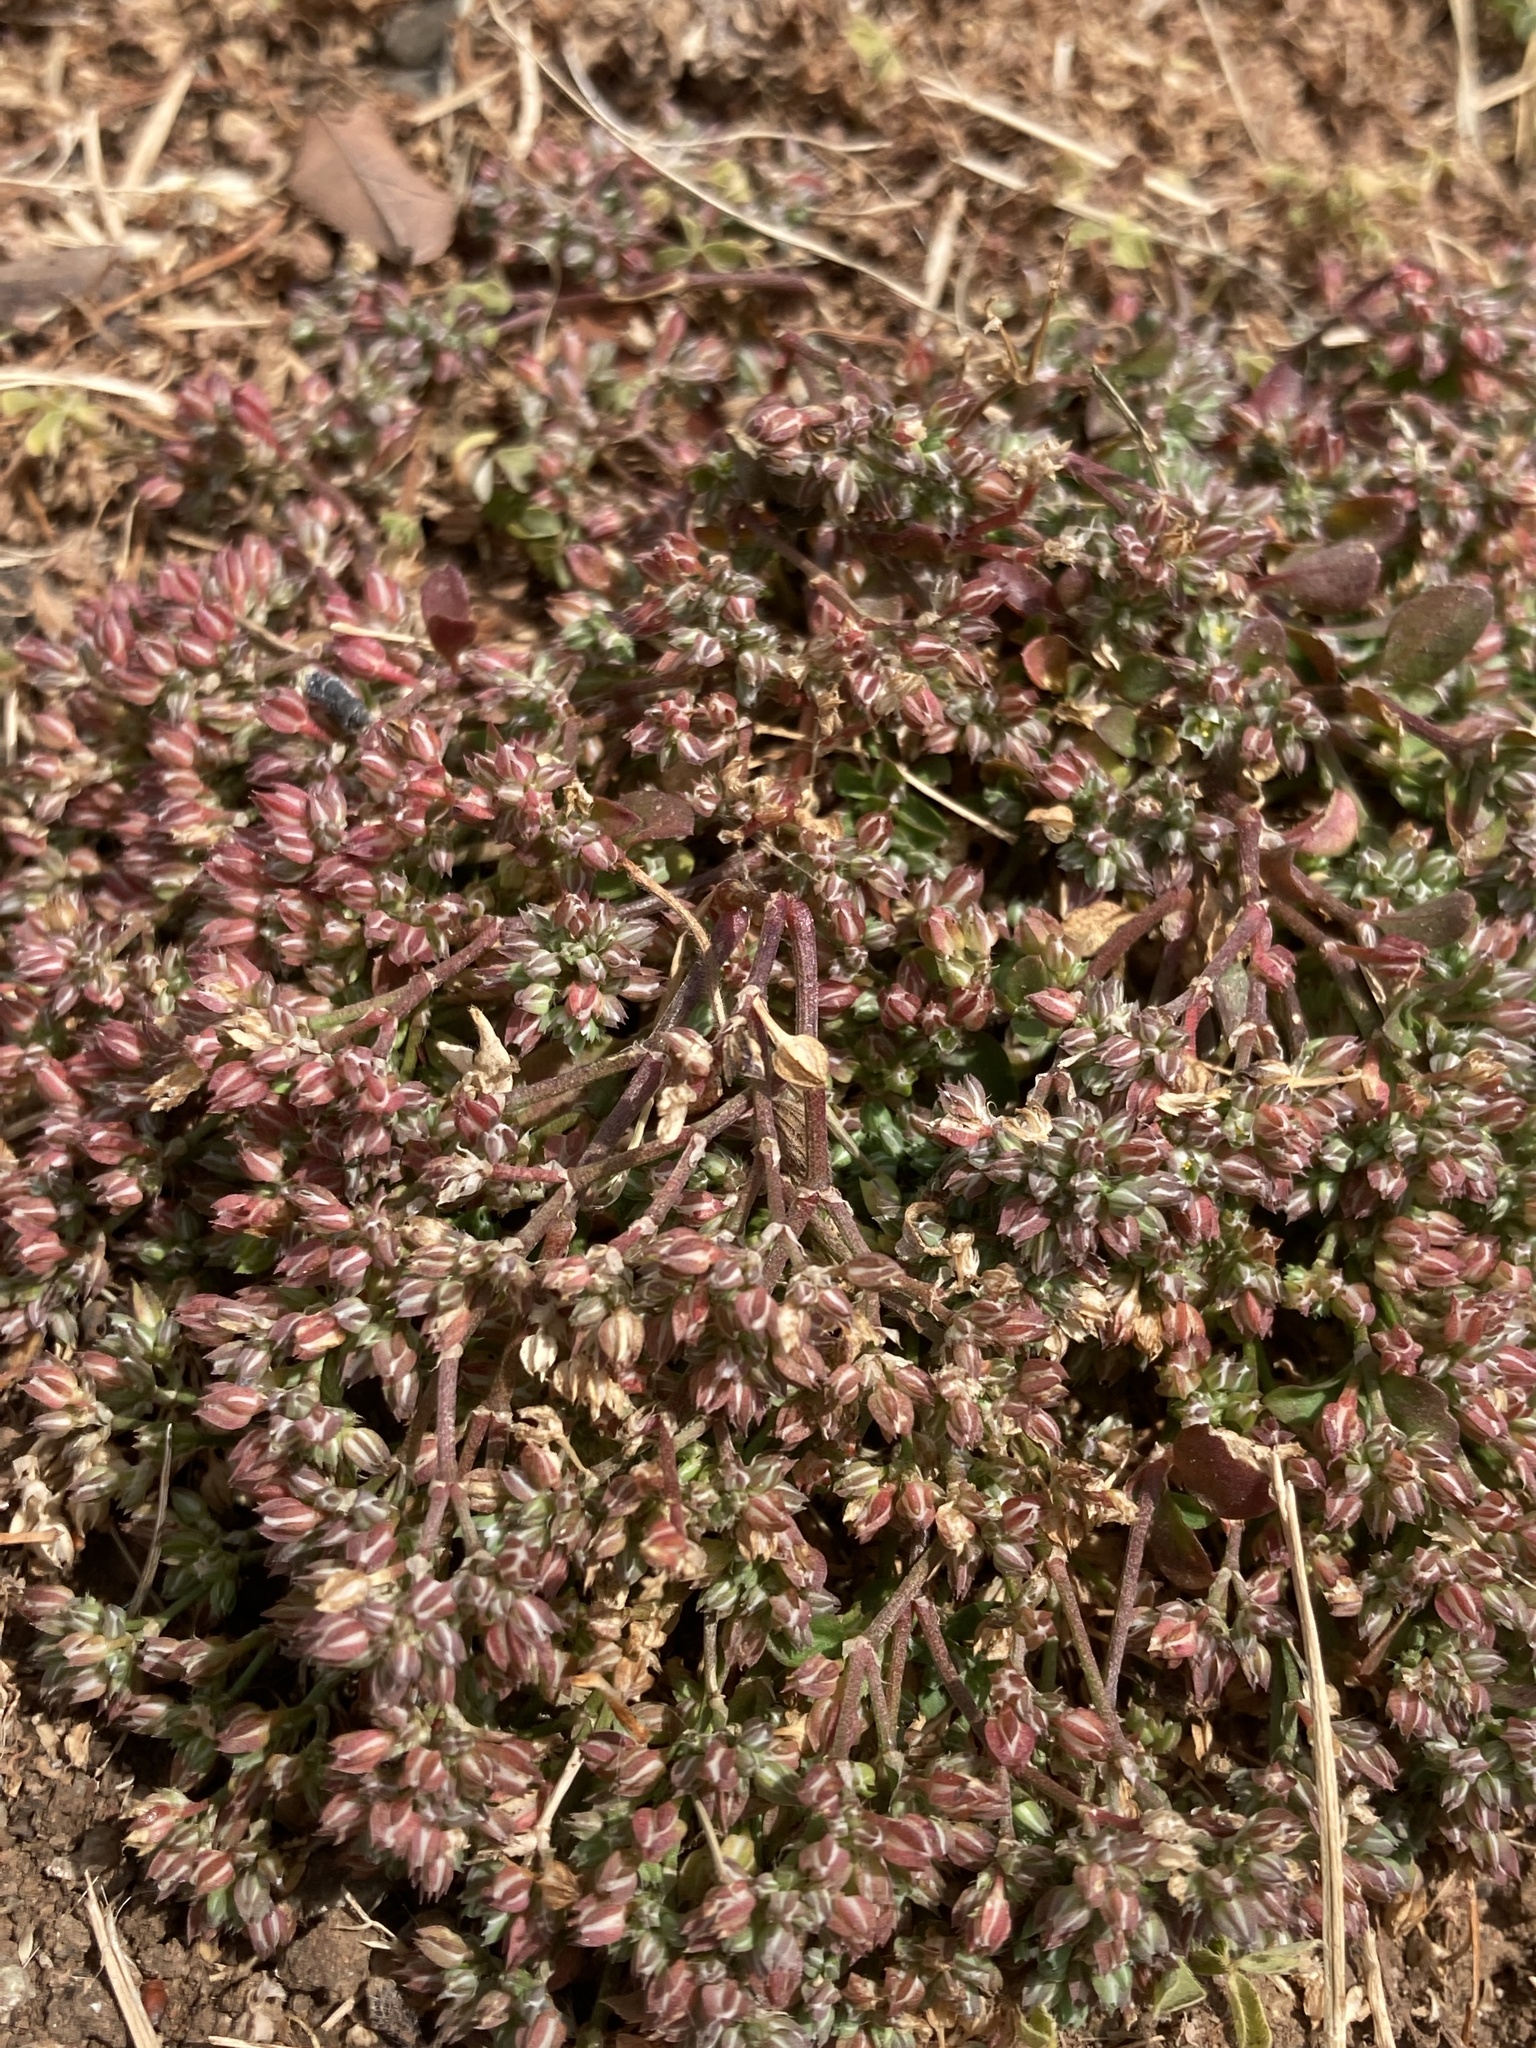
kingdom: Plantae
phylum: Tracheophyta
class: Magnoliopsida
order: Caryophyllales
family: Caryophyllaceae
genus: Polycarpon
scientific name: Polycarpon tetraphyllum
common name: Four-leaved all-seed
